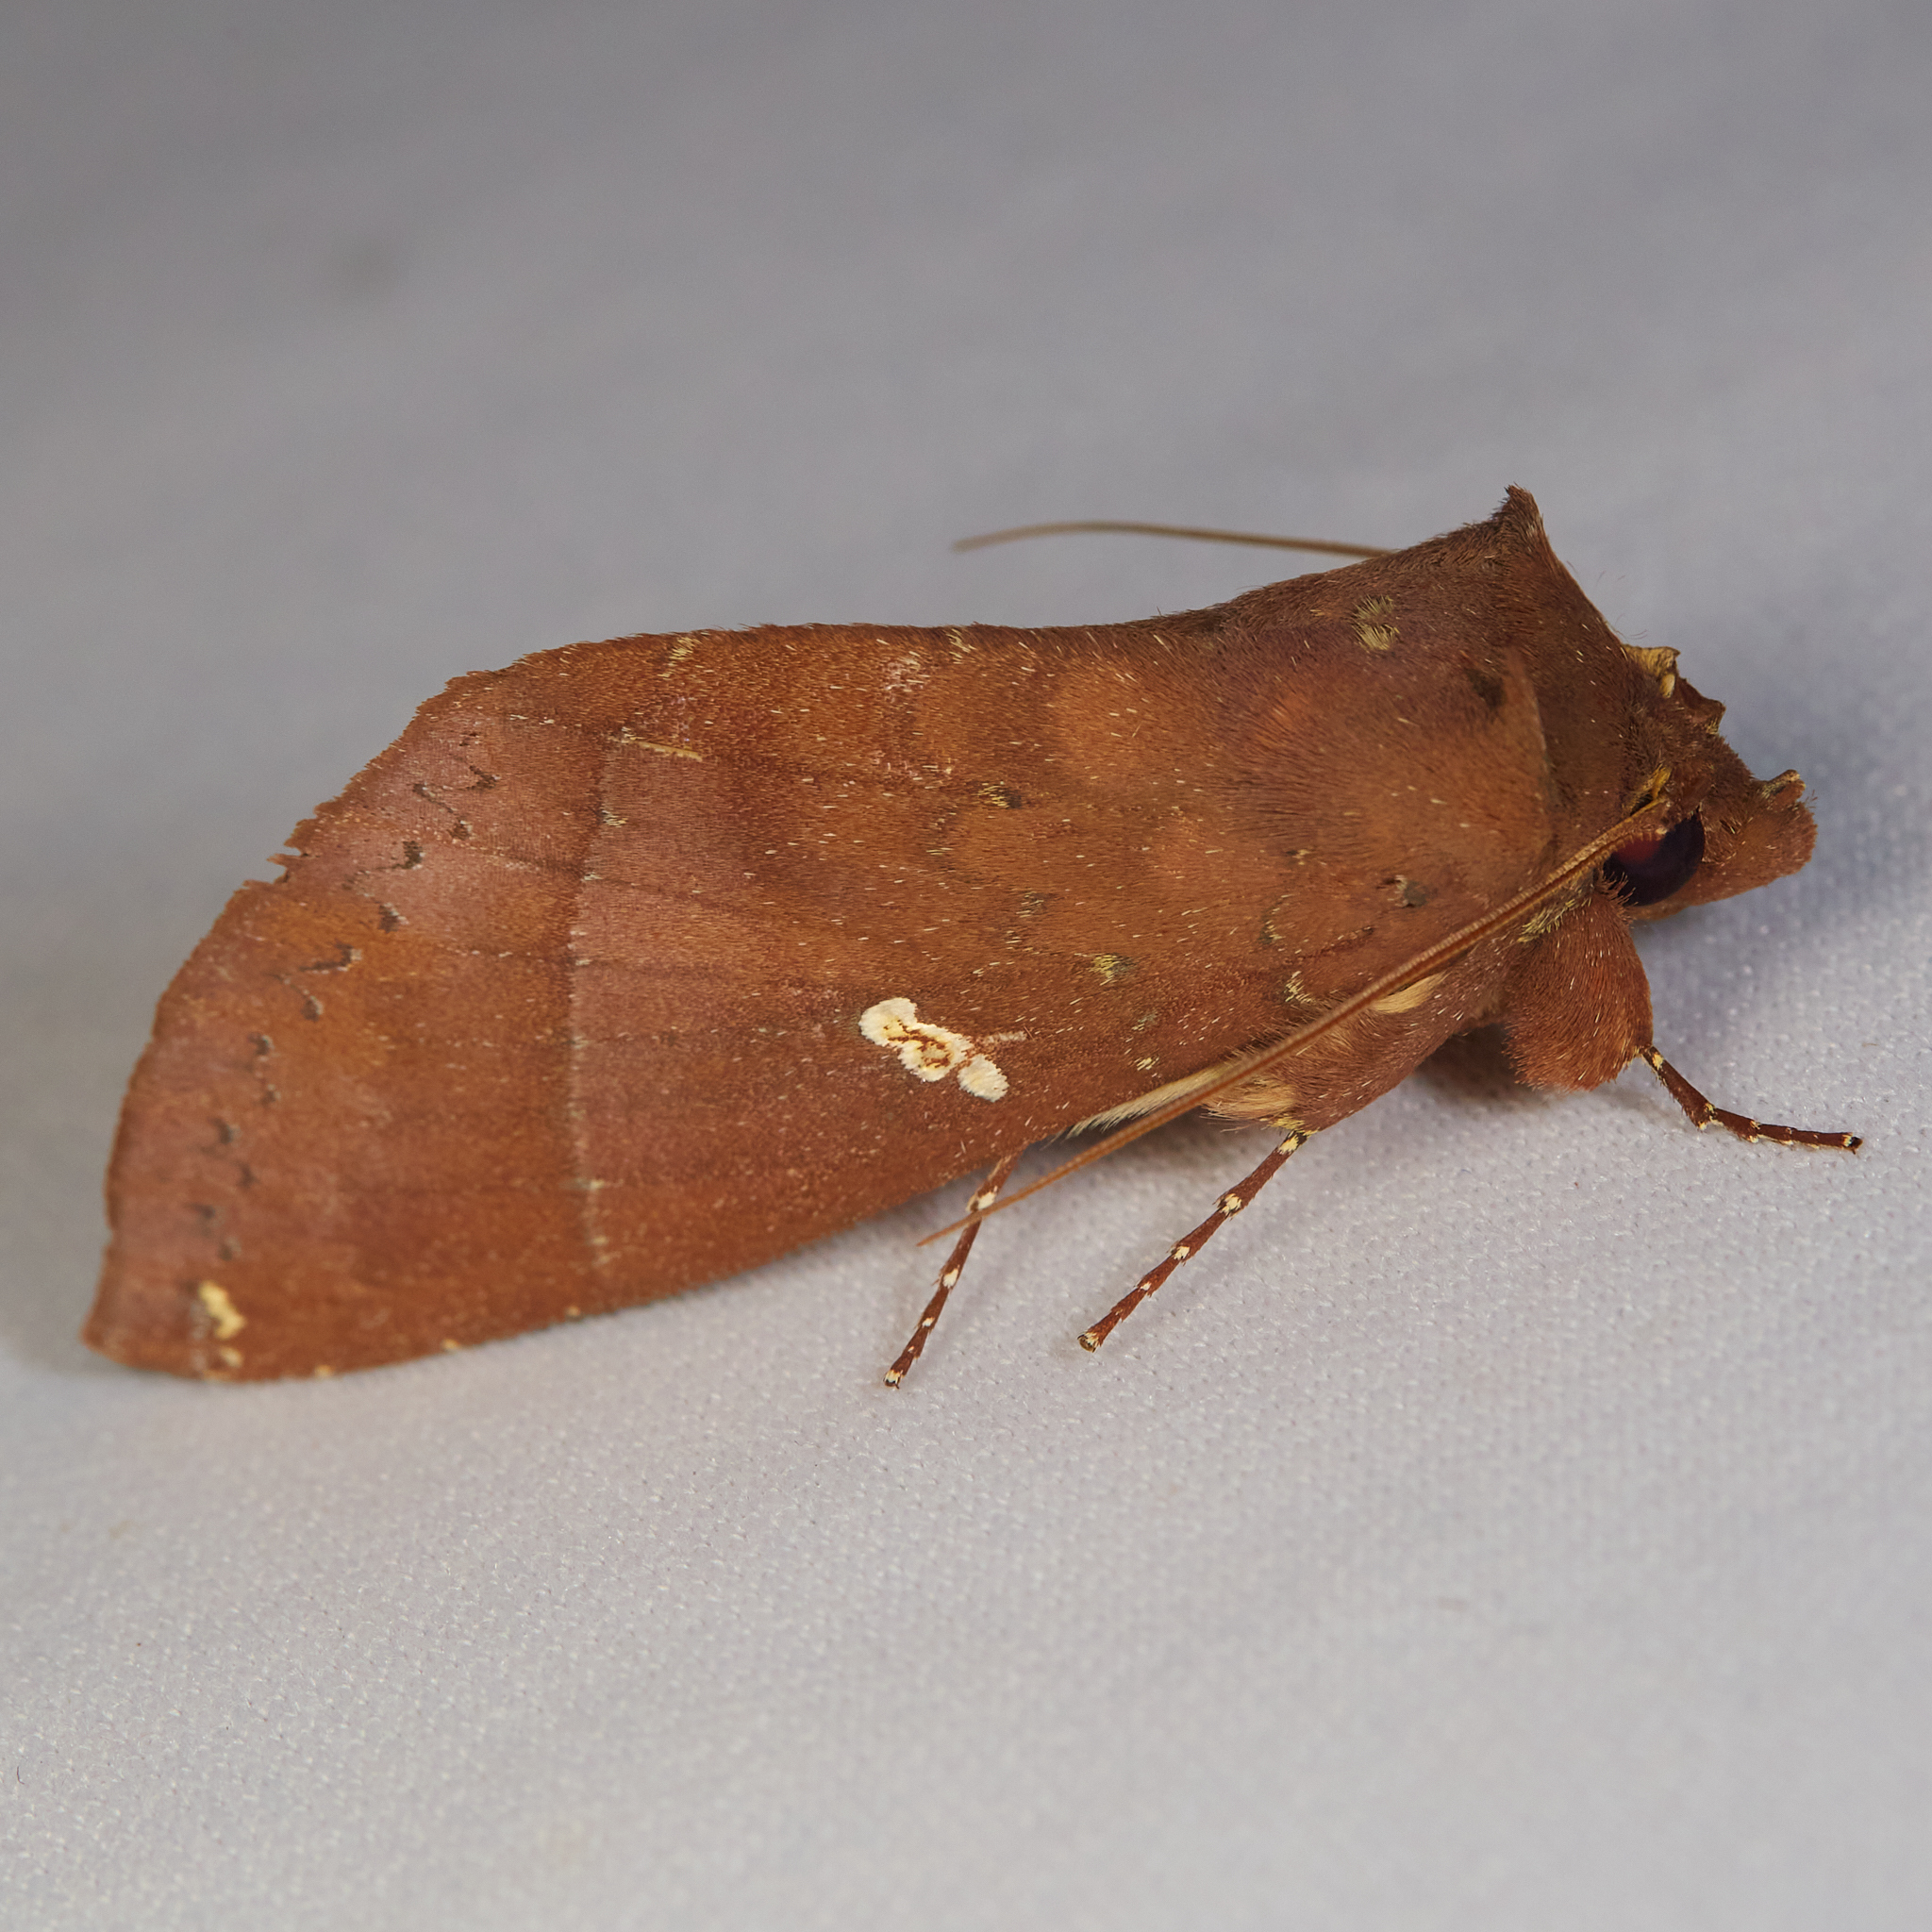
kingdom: Animalia
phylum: Arthropoda
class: Insecta
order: Lepidoptera
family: Notodontidae
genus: Hapigia
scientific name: Hapigia simplex
